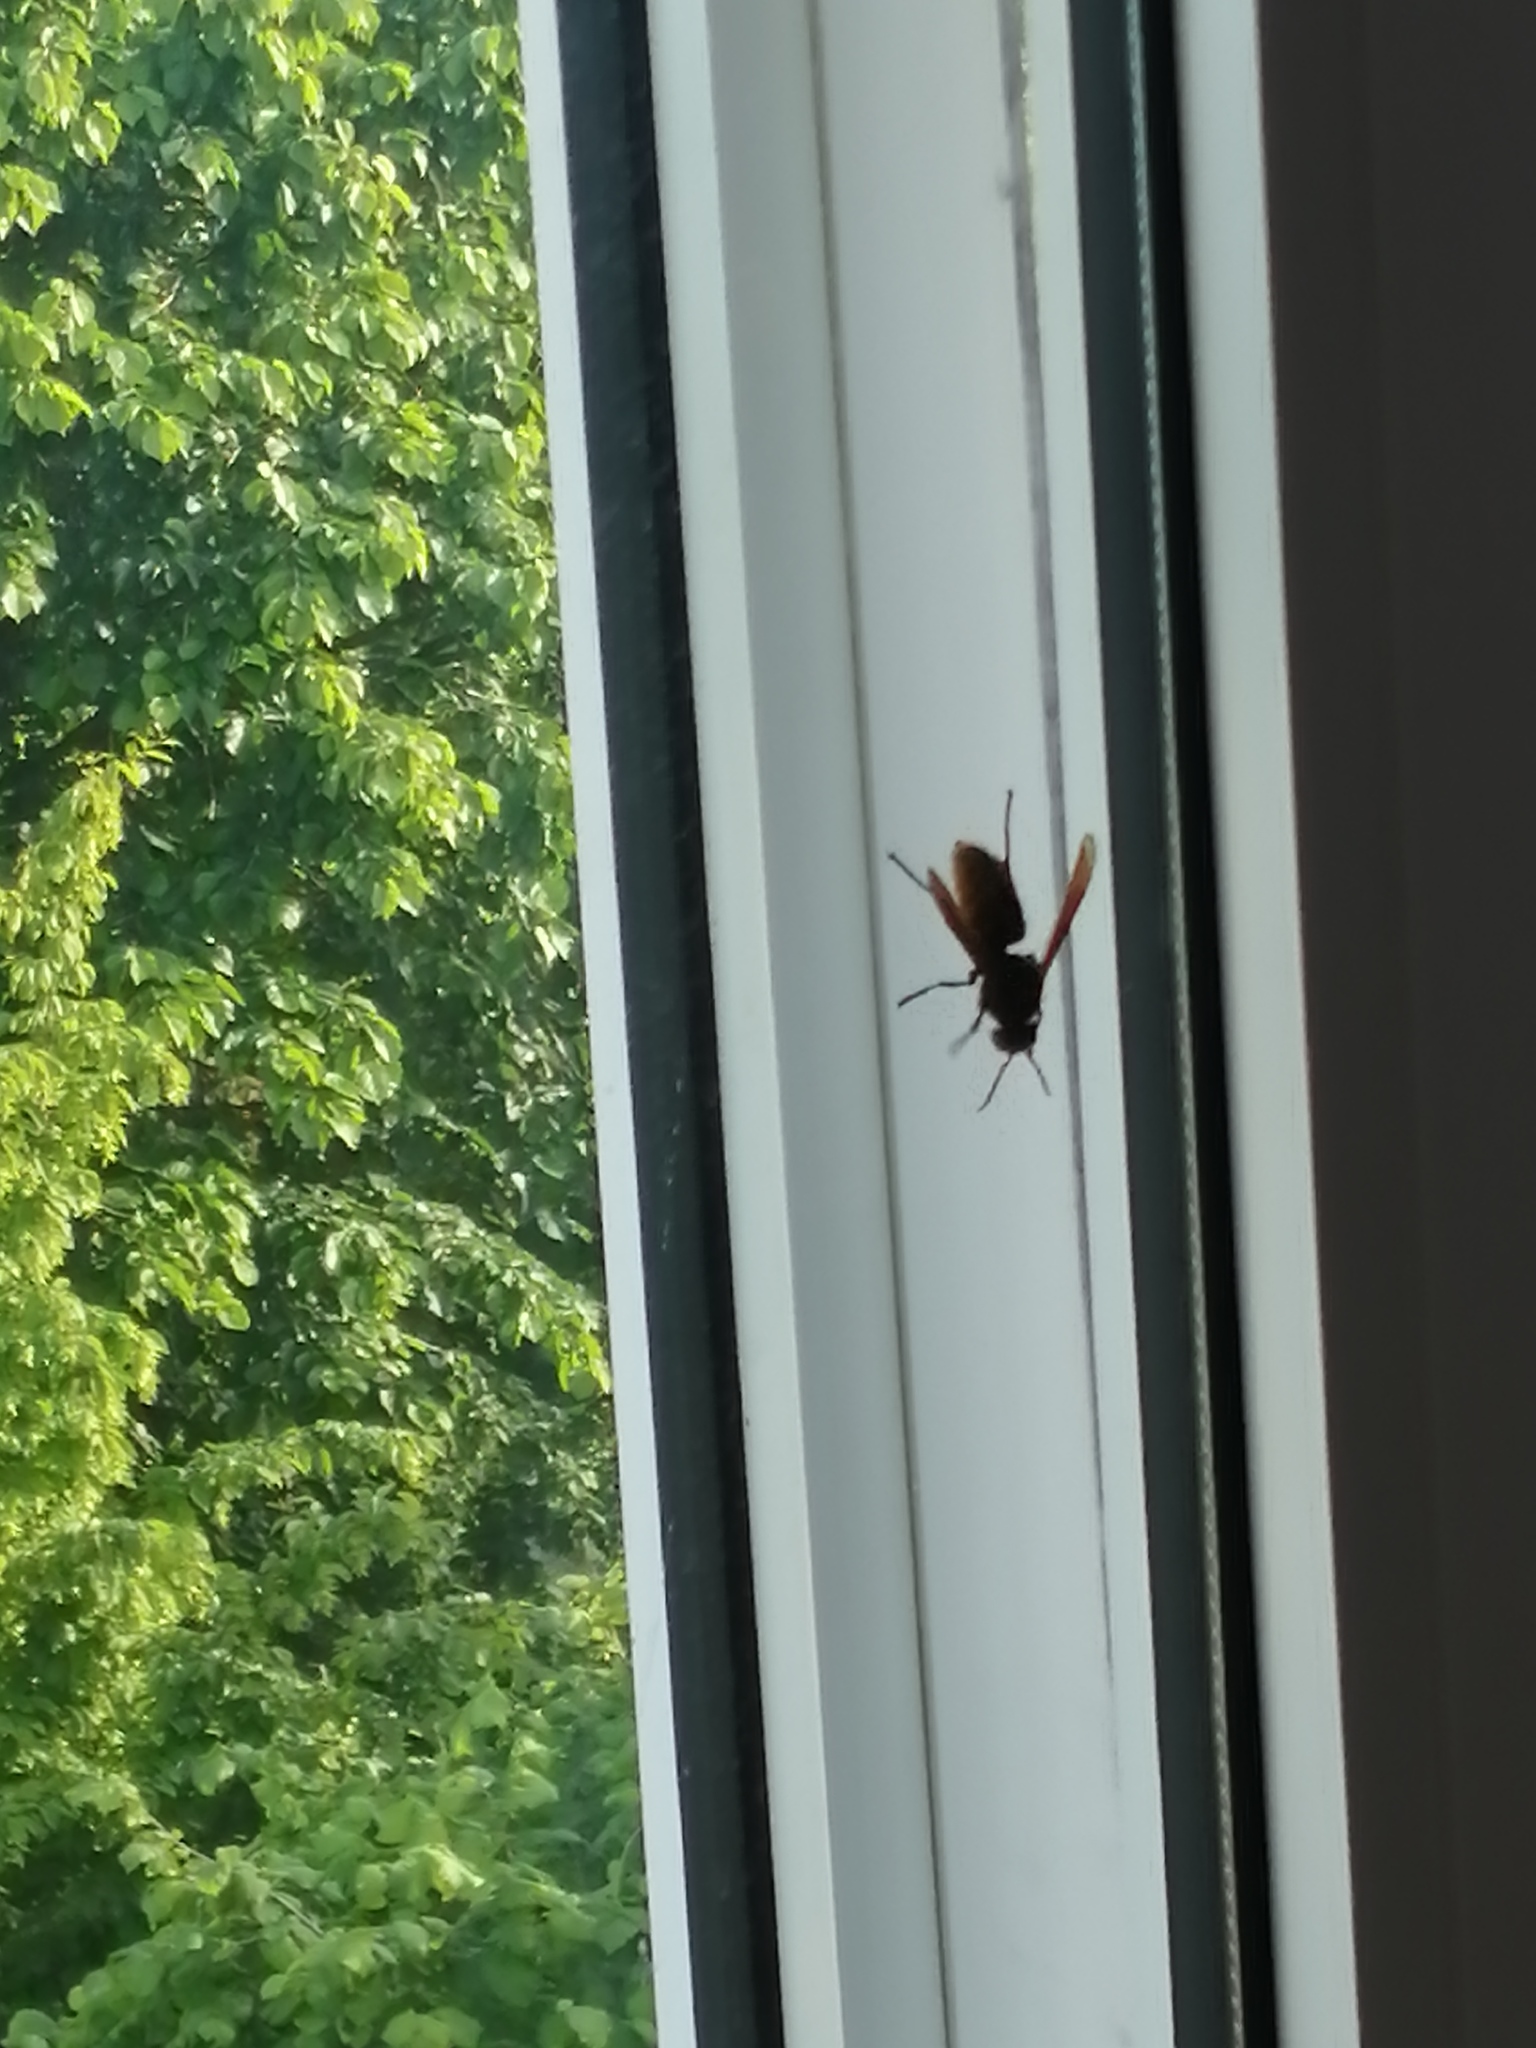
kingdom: Animalia
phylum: Arthropoda
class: Insecta
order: Hymenoptera
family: Vespidae
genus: Vespa
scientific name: Vespa crabro
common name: Hornet
